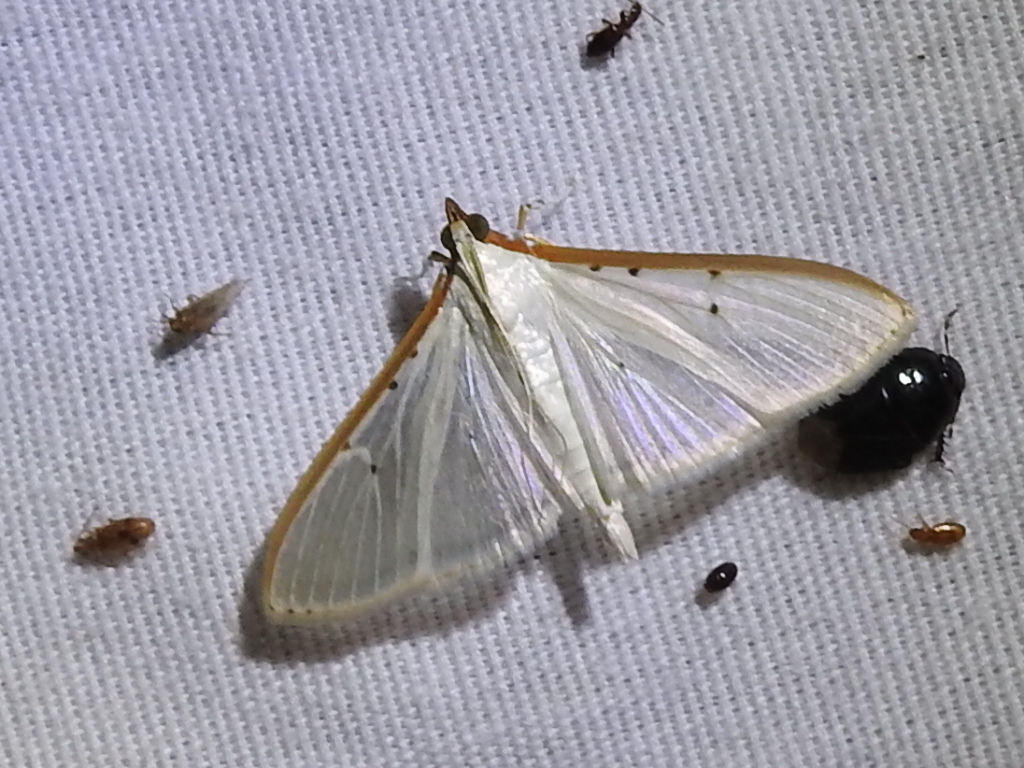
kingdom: Animalia
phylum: Arthropoda
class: Insecta
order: Lepidoptera
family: Crambidae
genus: Palpita
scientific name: Palpita quadristigmalis
